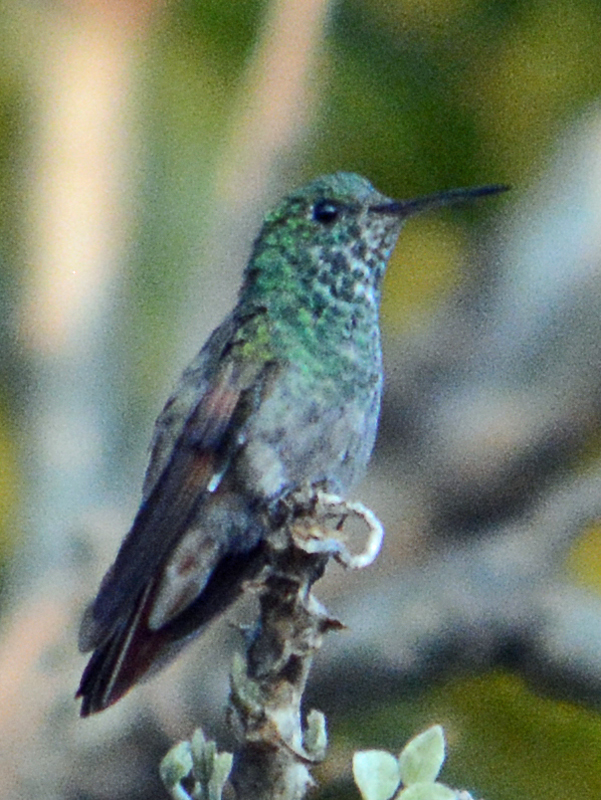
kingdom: Animalia
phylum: Chordata
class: Aves
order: Apodiformes
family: Trochilidae
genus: Saucerottia
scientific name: Saucerottia beryllina
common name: Berylline hummingbird
